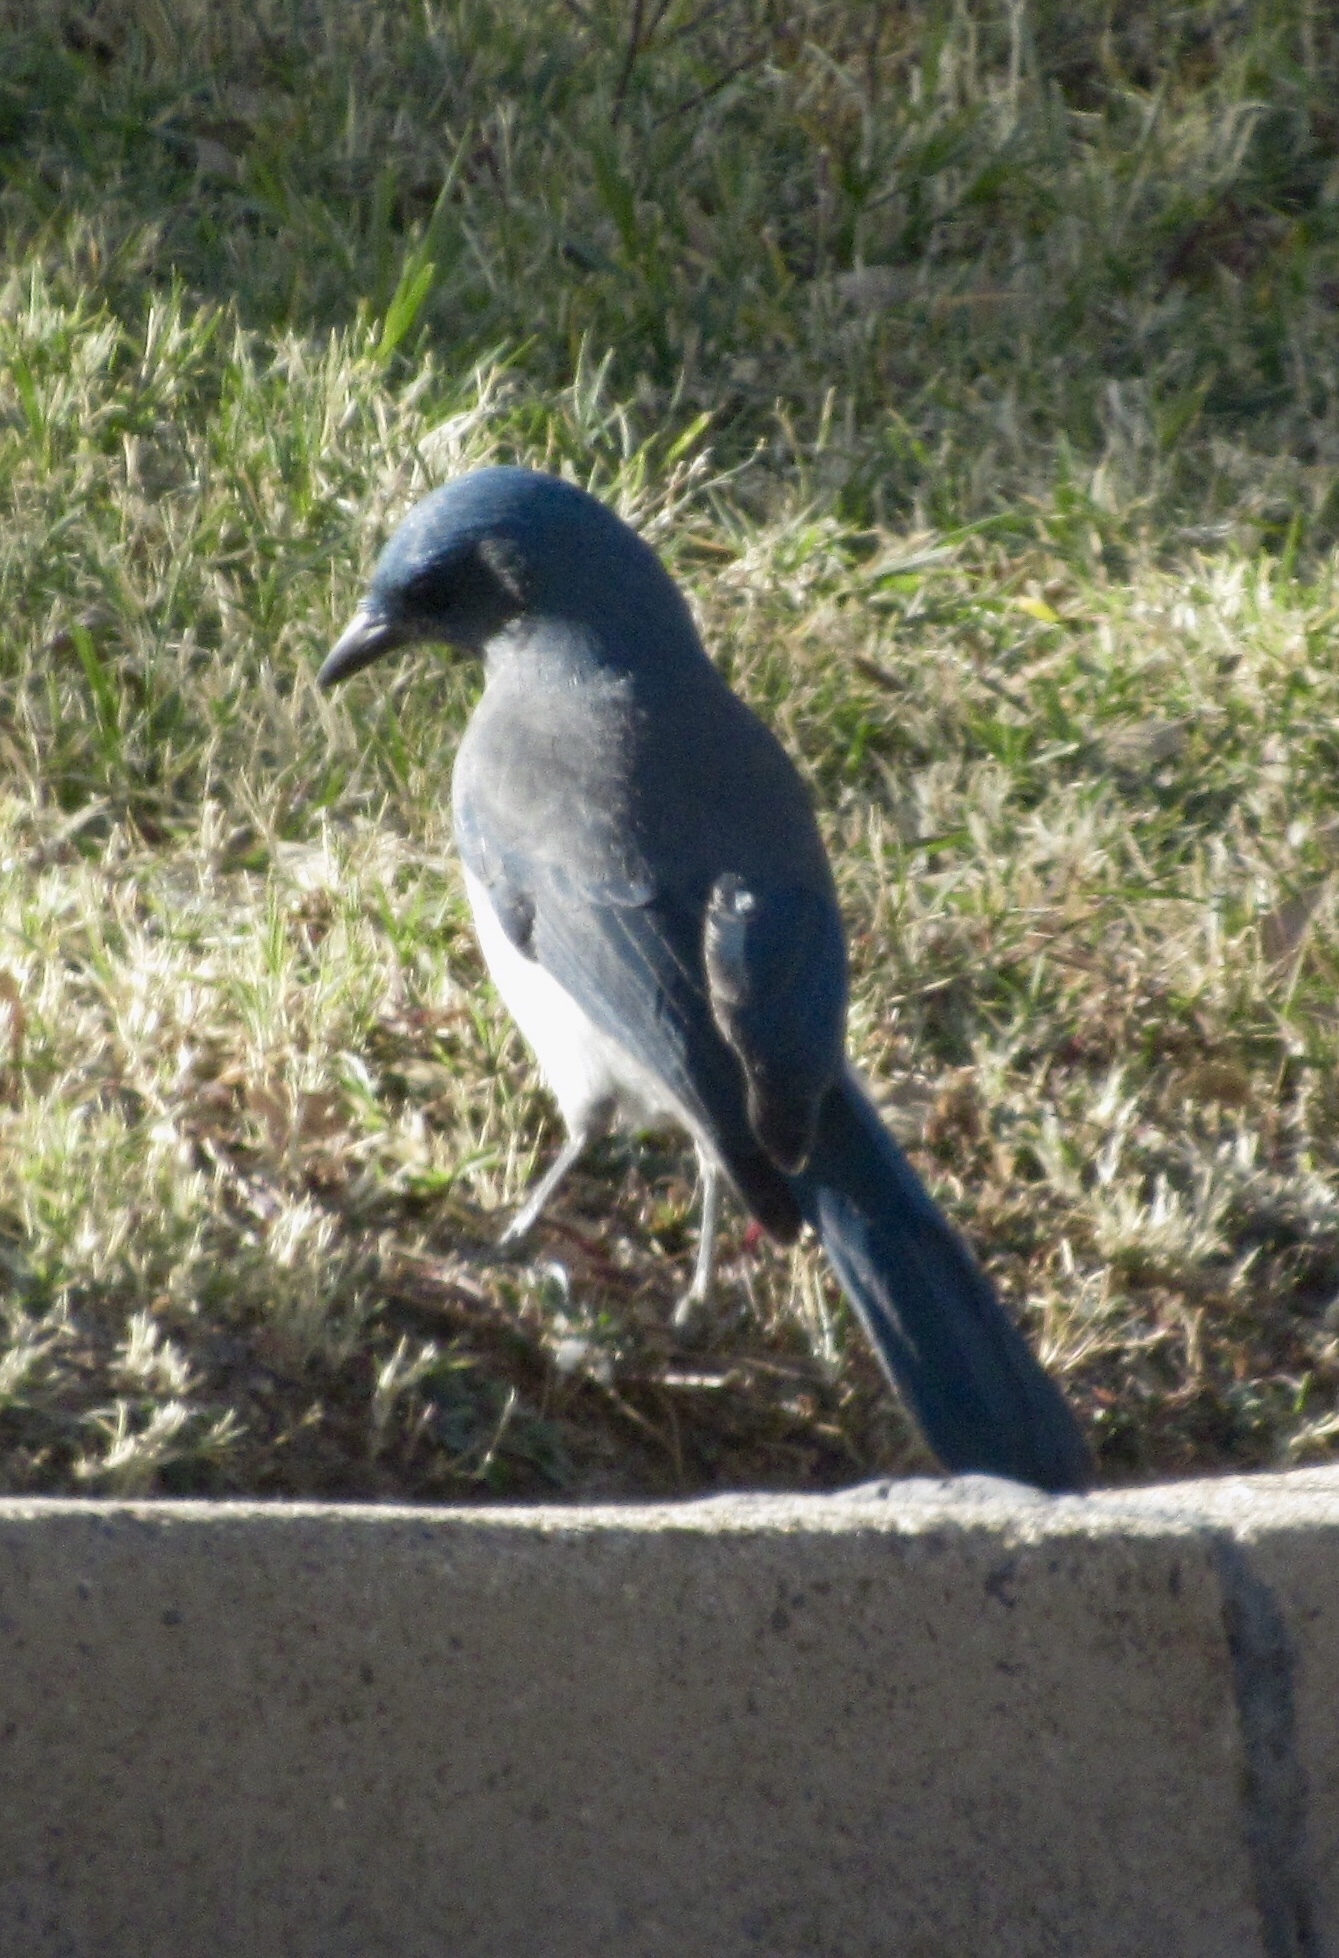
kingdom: Animalia
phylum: Chordata
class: Aves
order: Passeriformes
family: Corvidae
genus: Aphelocoma
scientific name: Aphelocoma wollweberi
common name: Mexican jay
